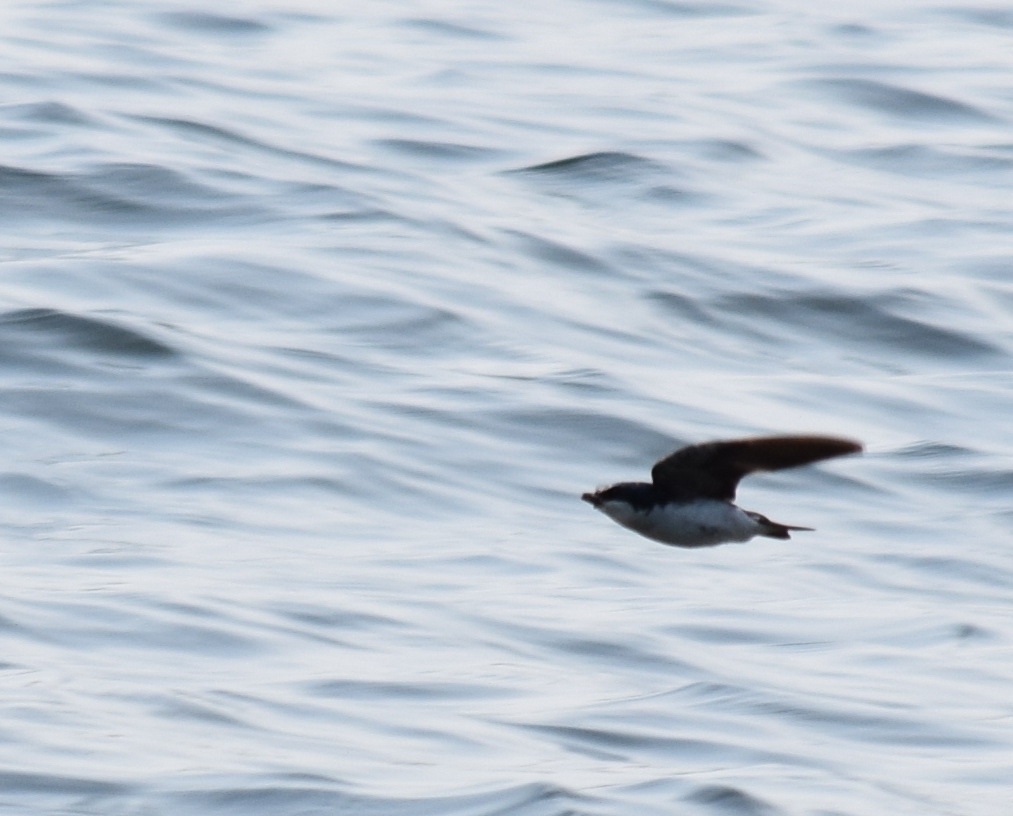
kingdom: Animalia
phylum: Chordata
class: Aves
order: Passeriformes
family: Hirundinidae
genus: Tachycineta
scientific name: Tachycineta bicolor
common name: Tree swallow
